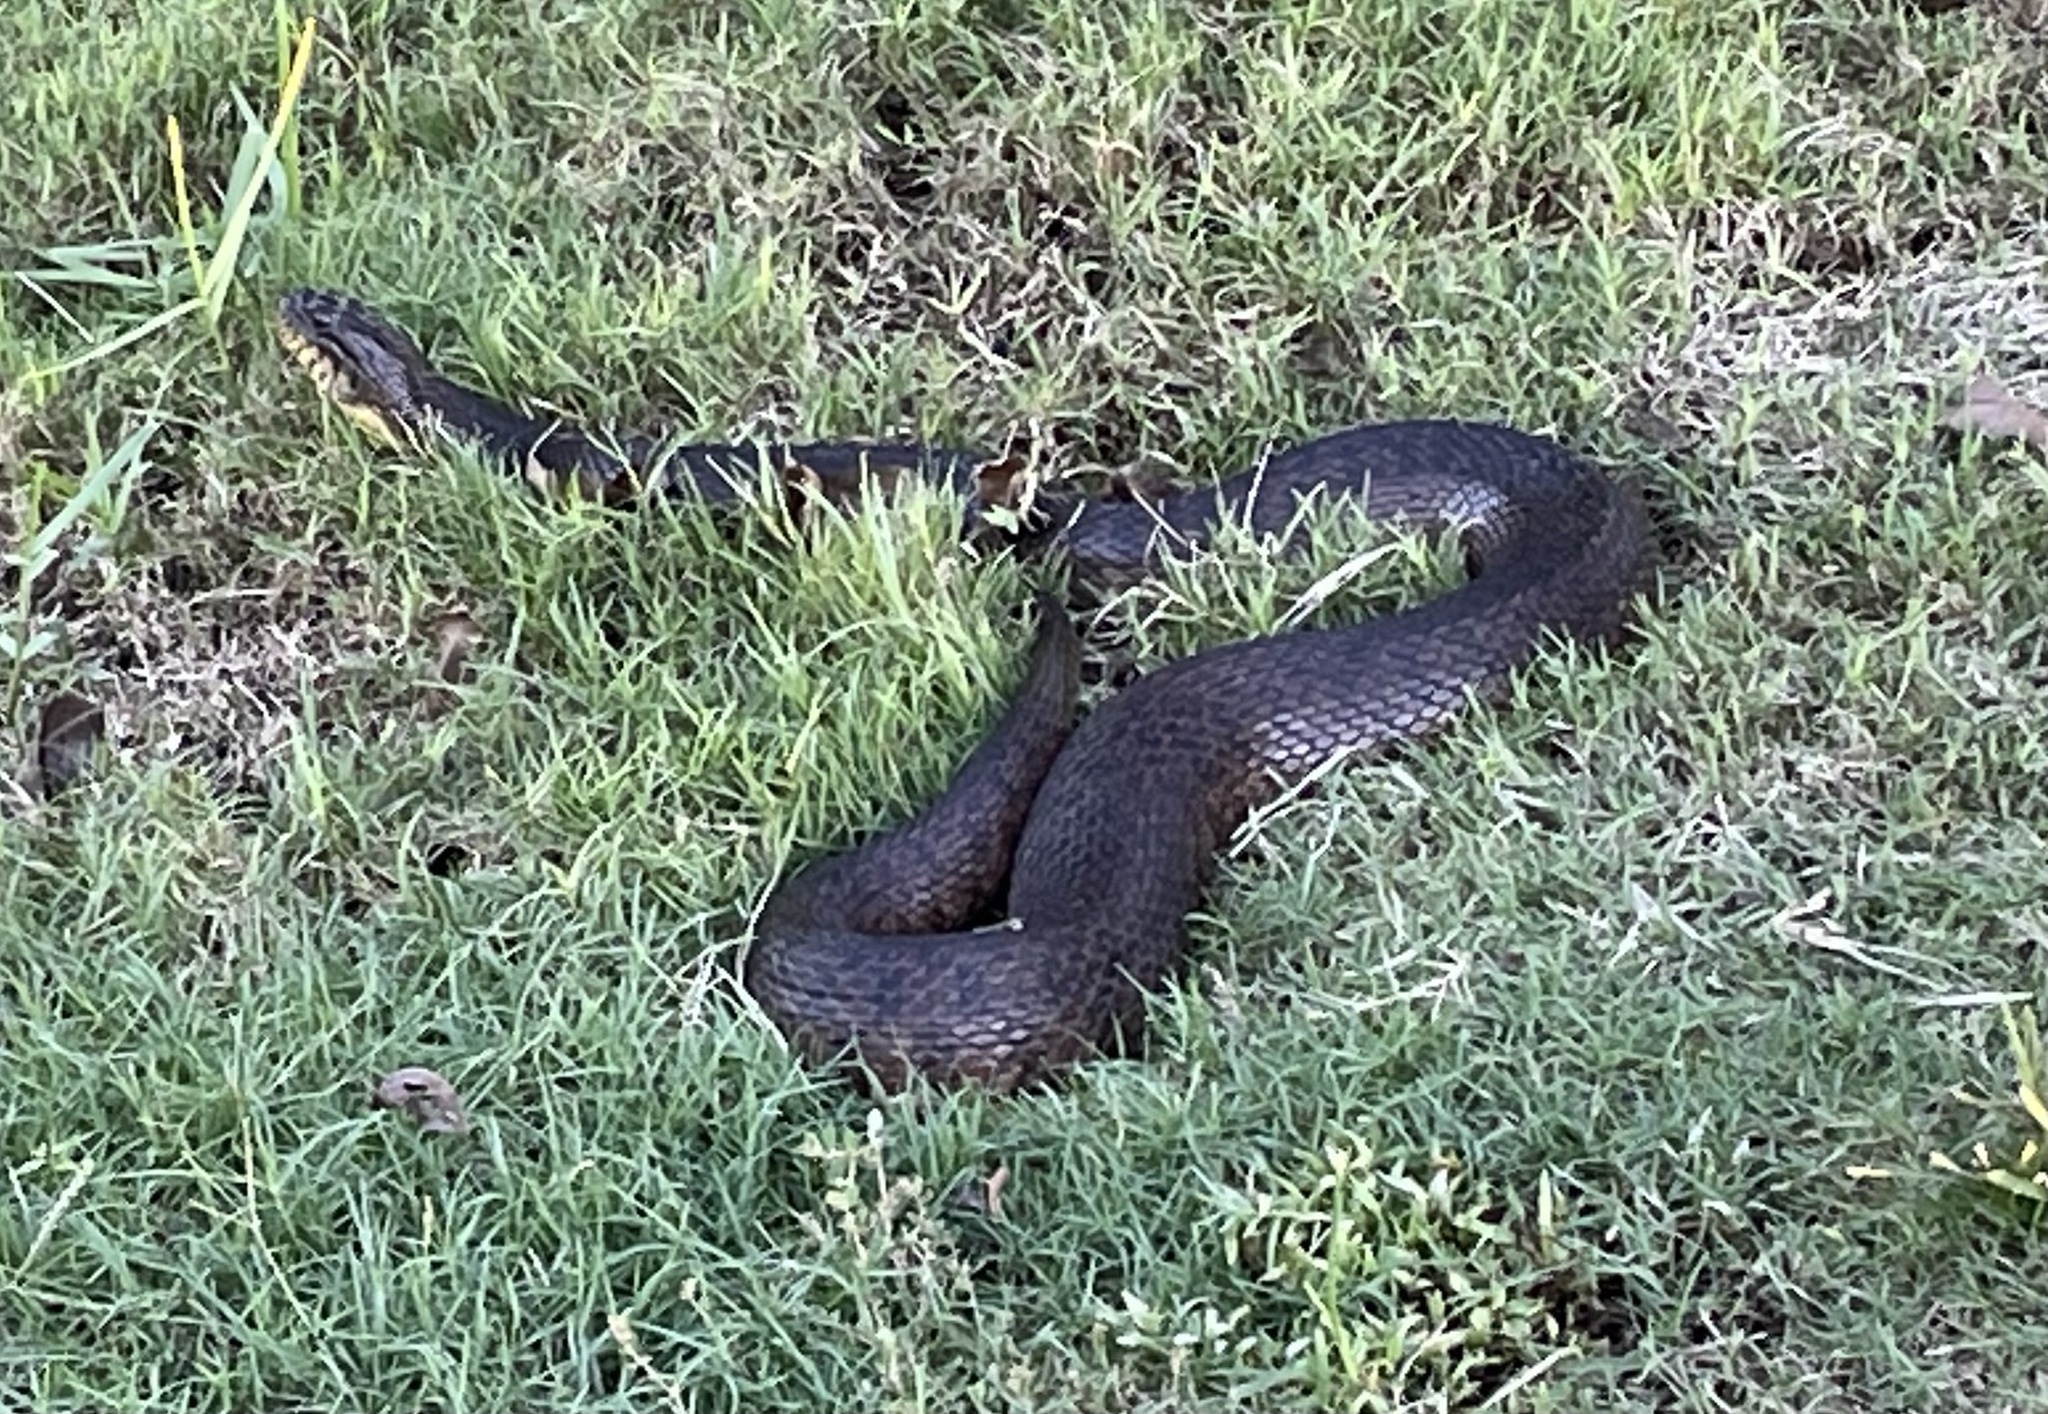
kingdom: Animalia
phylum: Chordata
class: Squamata
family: Colubridae
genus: Nerodia
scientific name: Nerodia floridana
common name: Florida green watersnake
